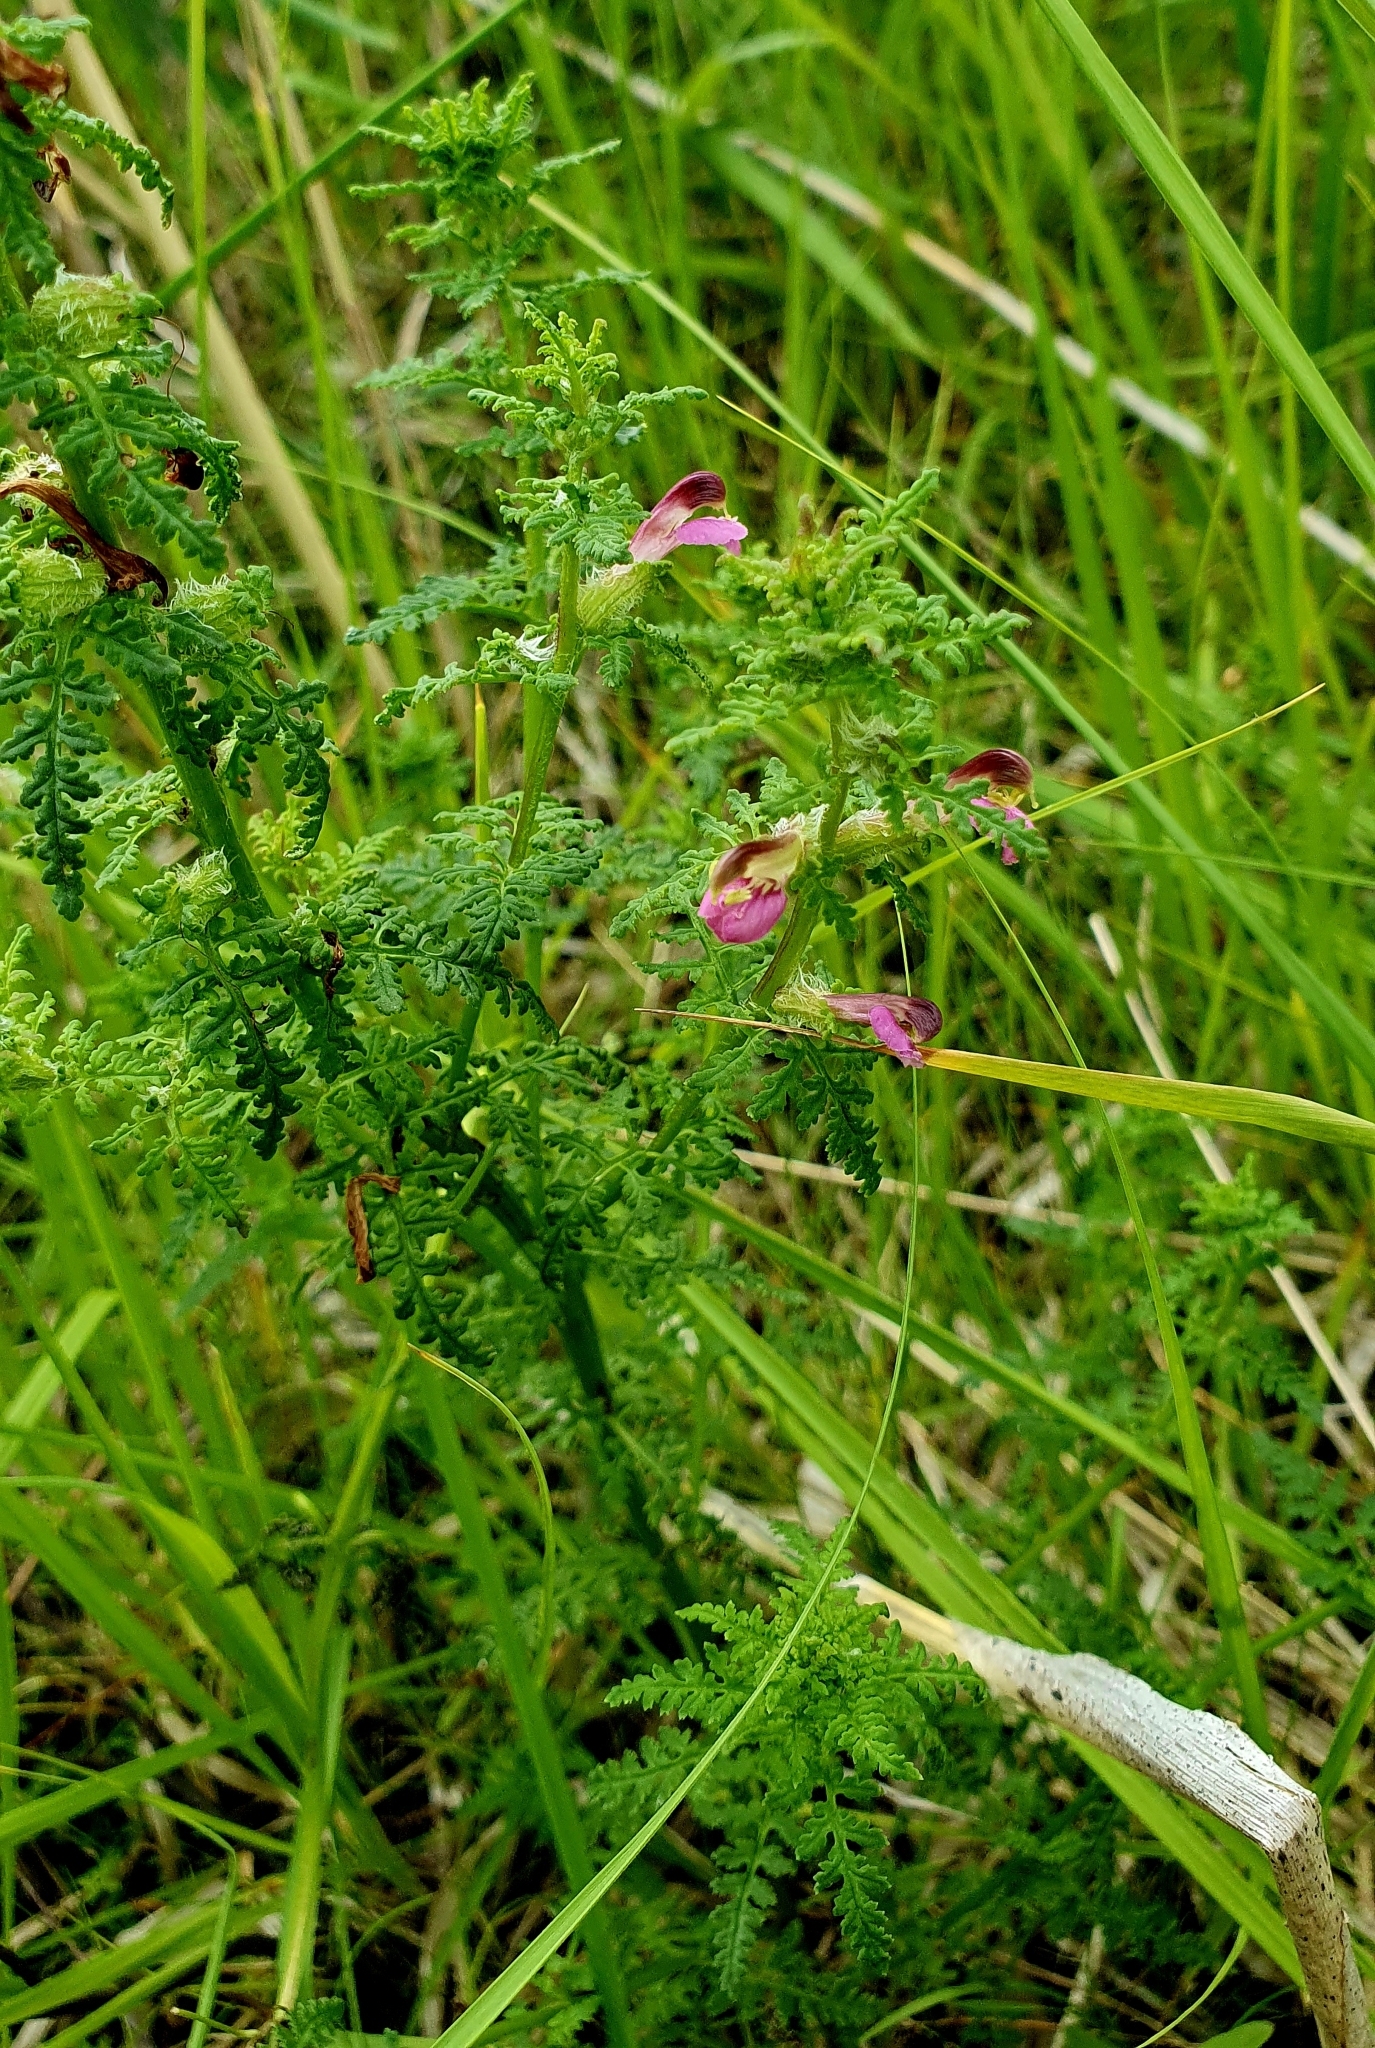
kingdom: Plantae
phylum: Tracheophyta
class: Magnoliopsida
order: Lamiales
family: Orobanchaceae
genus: Pedicularis
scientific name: Pedicularis palustris
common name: Marsh lousewort
